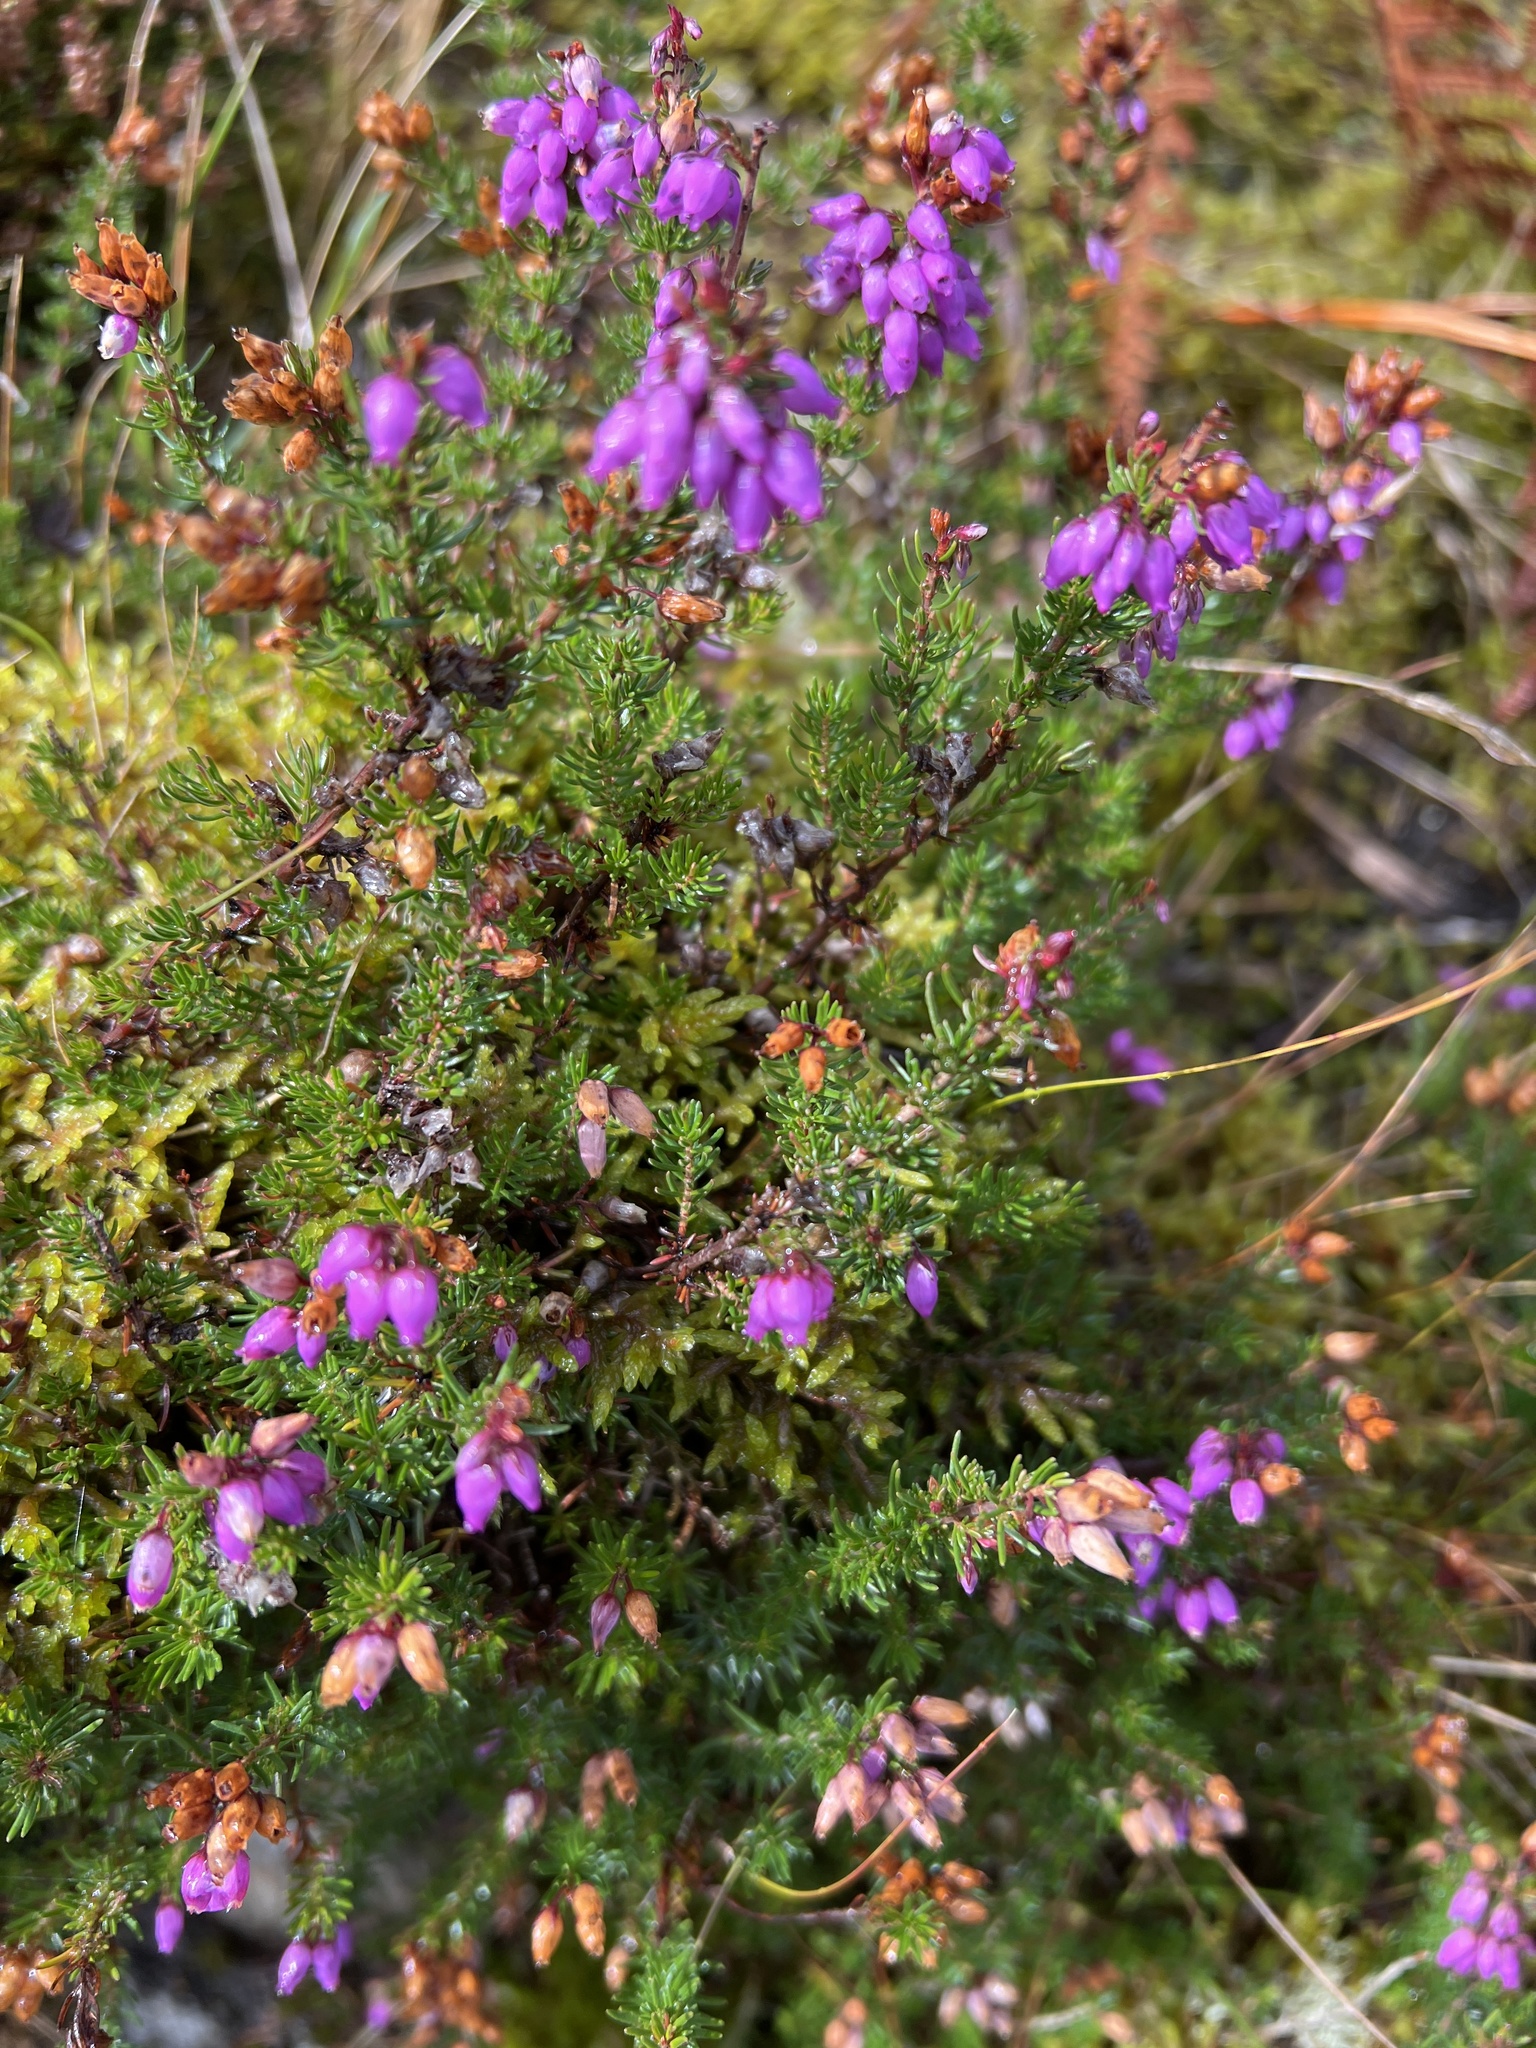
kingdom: Plantae
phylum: Tracheophyta
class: Magnoliopsida
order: Ericales
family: Ericaceae
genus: Erica
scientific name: Erica cinerea
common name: Bell heather
